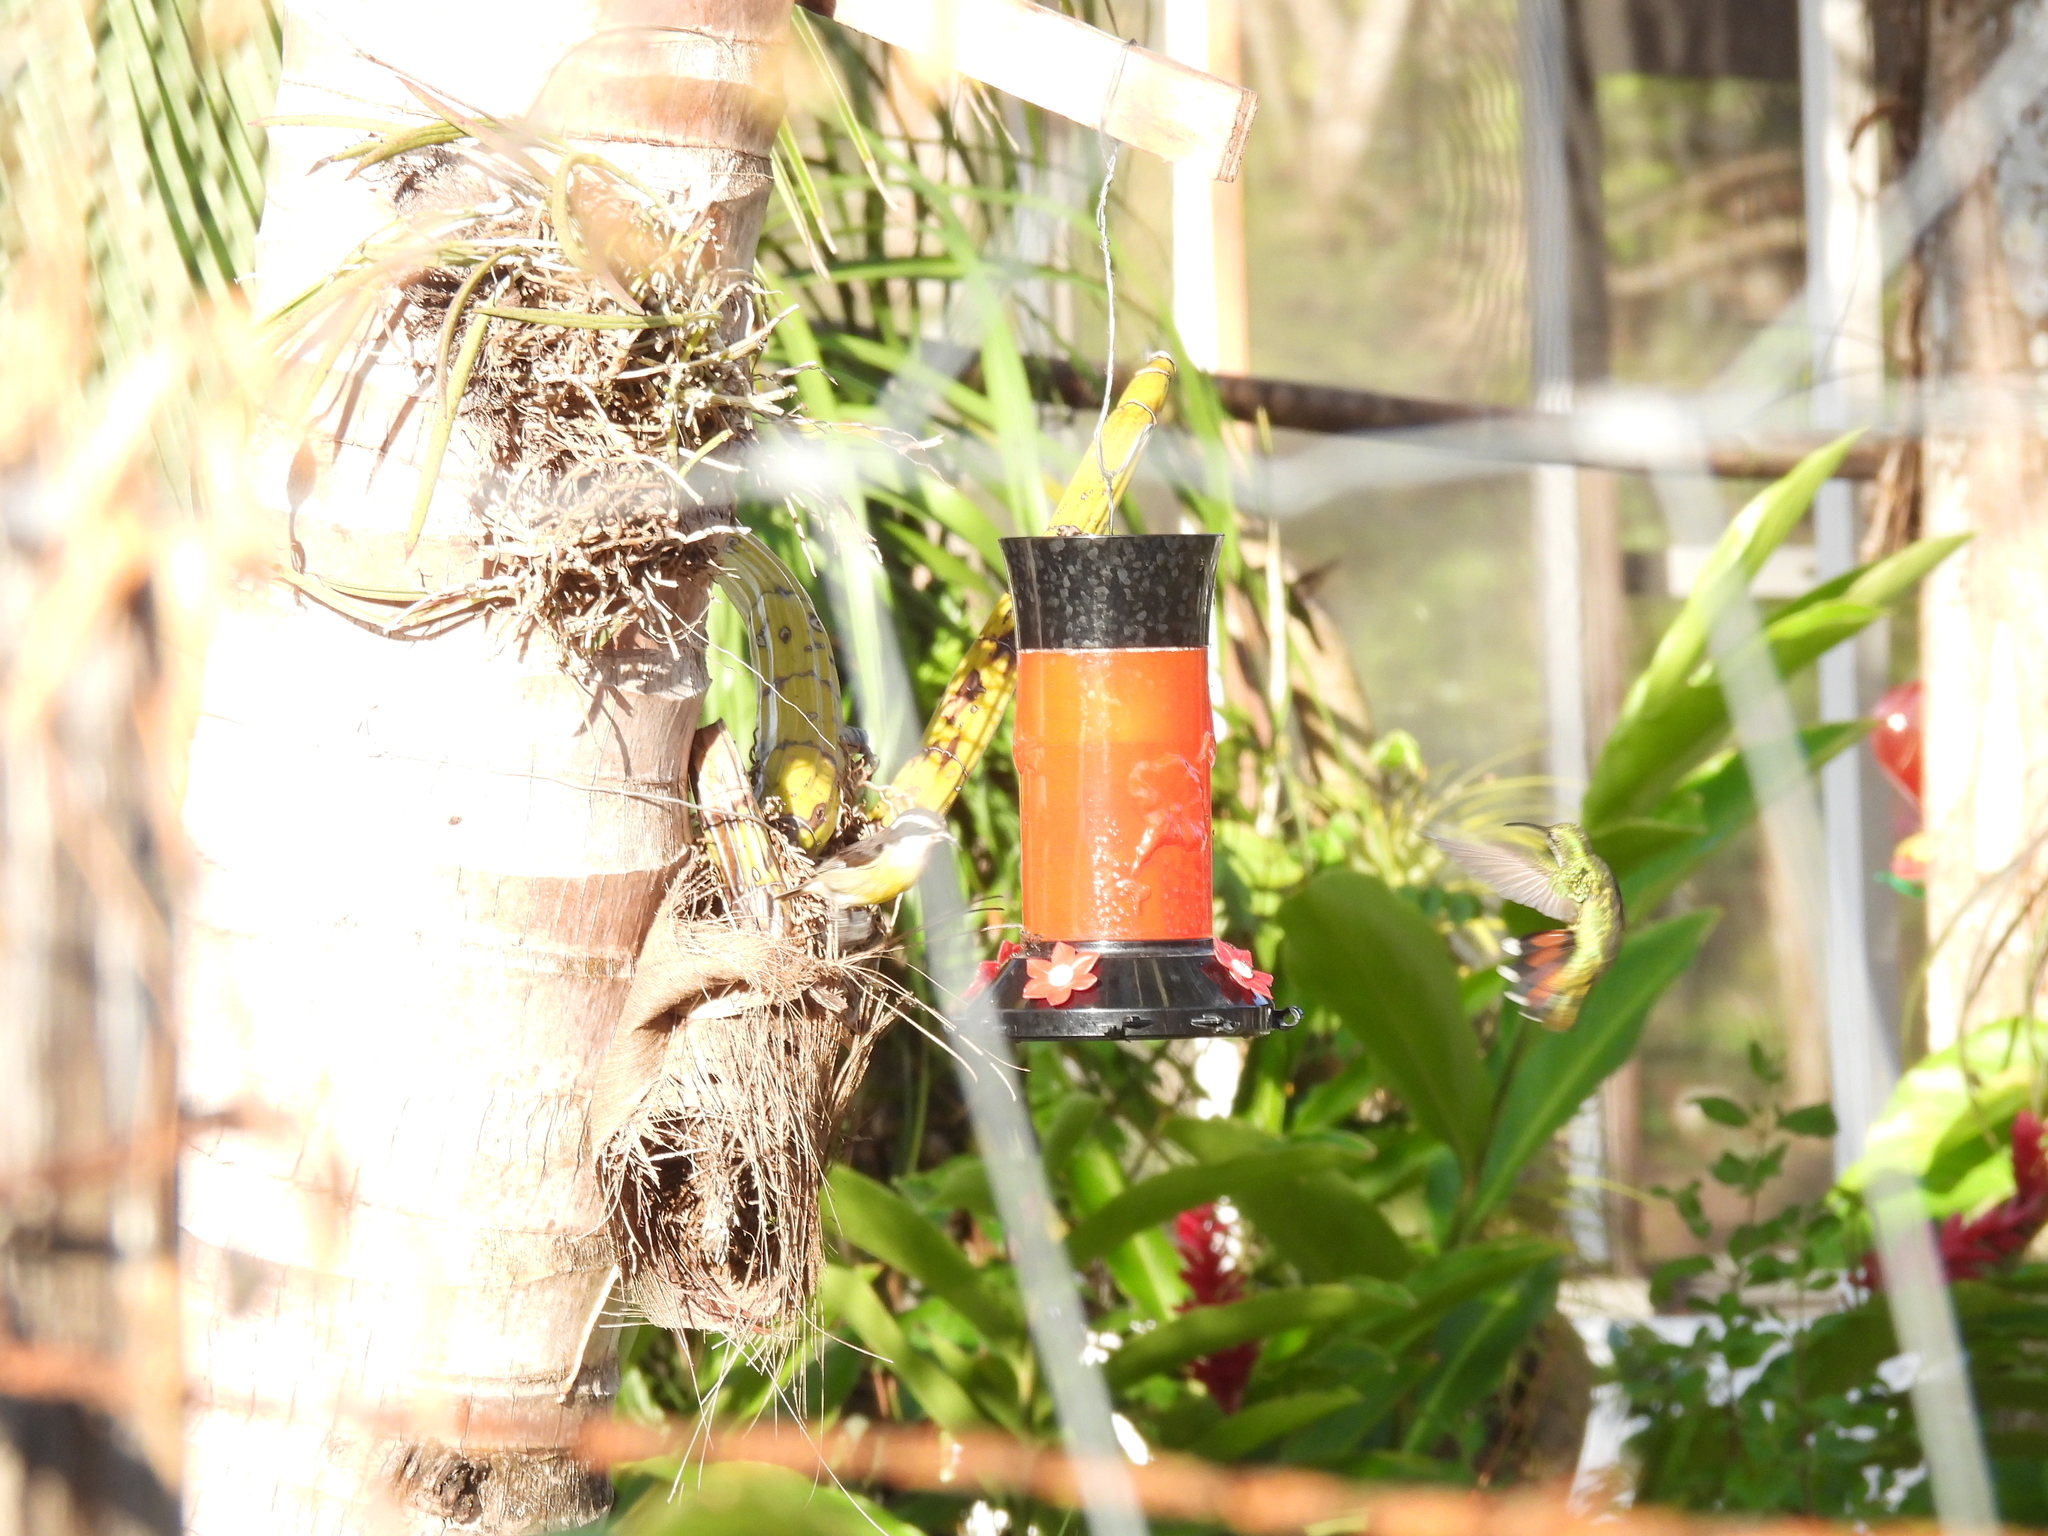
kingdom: Animalia
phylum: Chordata
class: Aves
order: Passeriformes
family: Thraupidae
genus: Coereba
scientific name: Coereba flaveola
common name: Bananaquit
